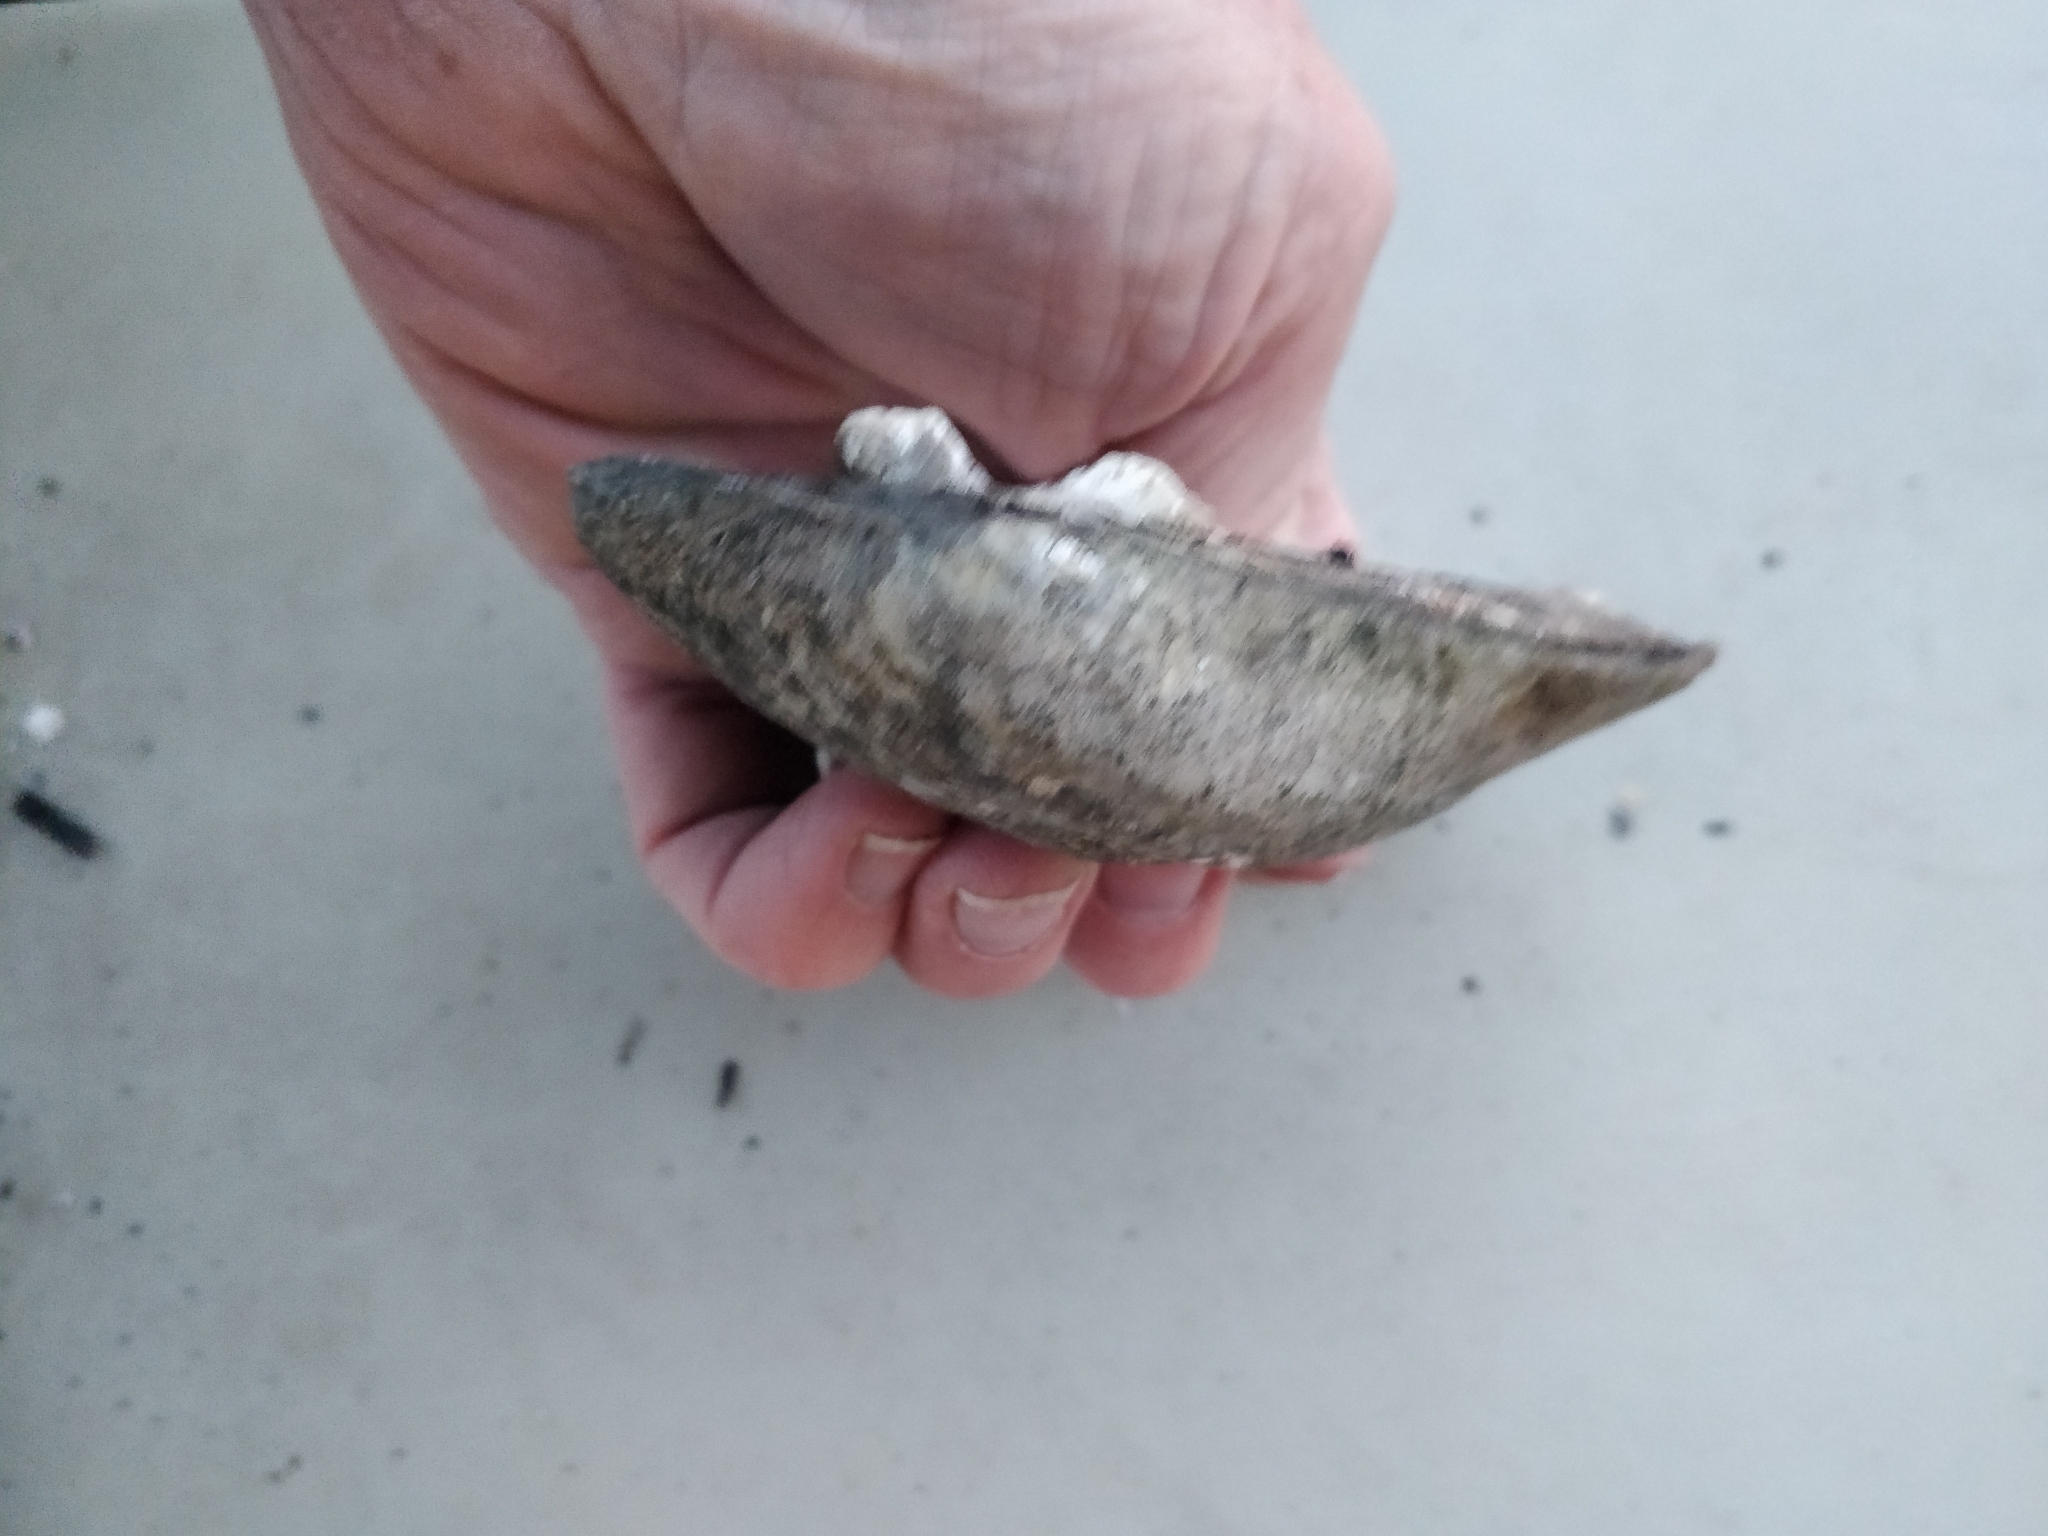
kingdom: Animalia
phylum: Mollusca
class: Bivalvia
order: Unionida
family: Unionidae
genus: Amblema
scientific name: Amblema plicata
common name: Threeridge
